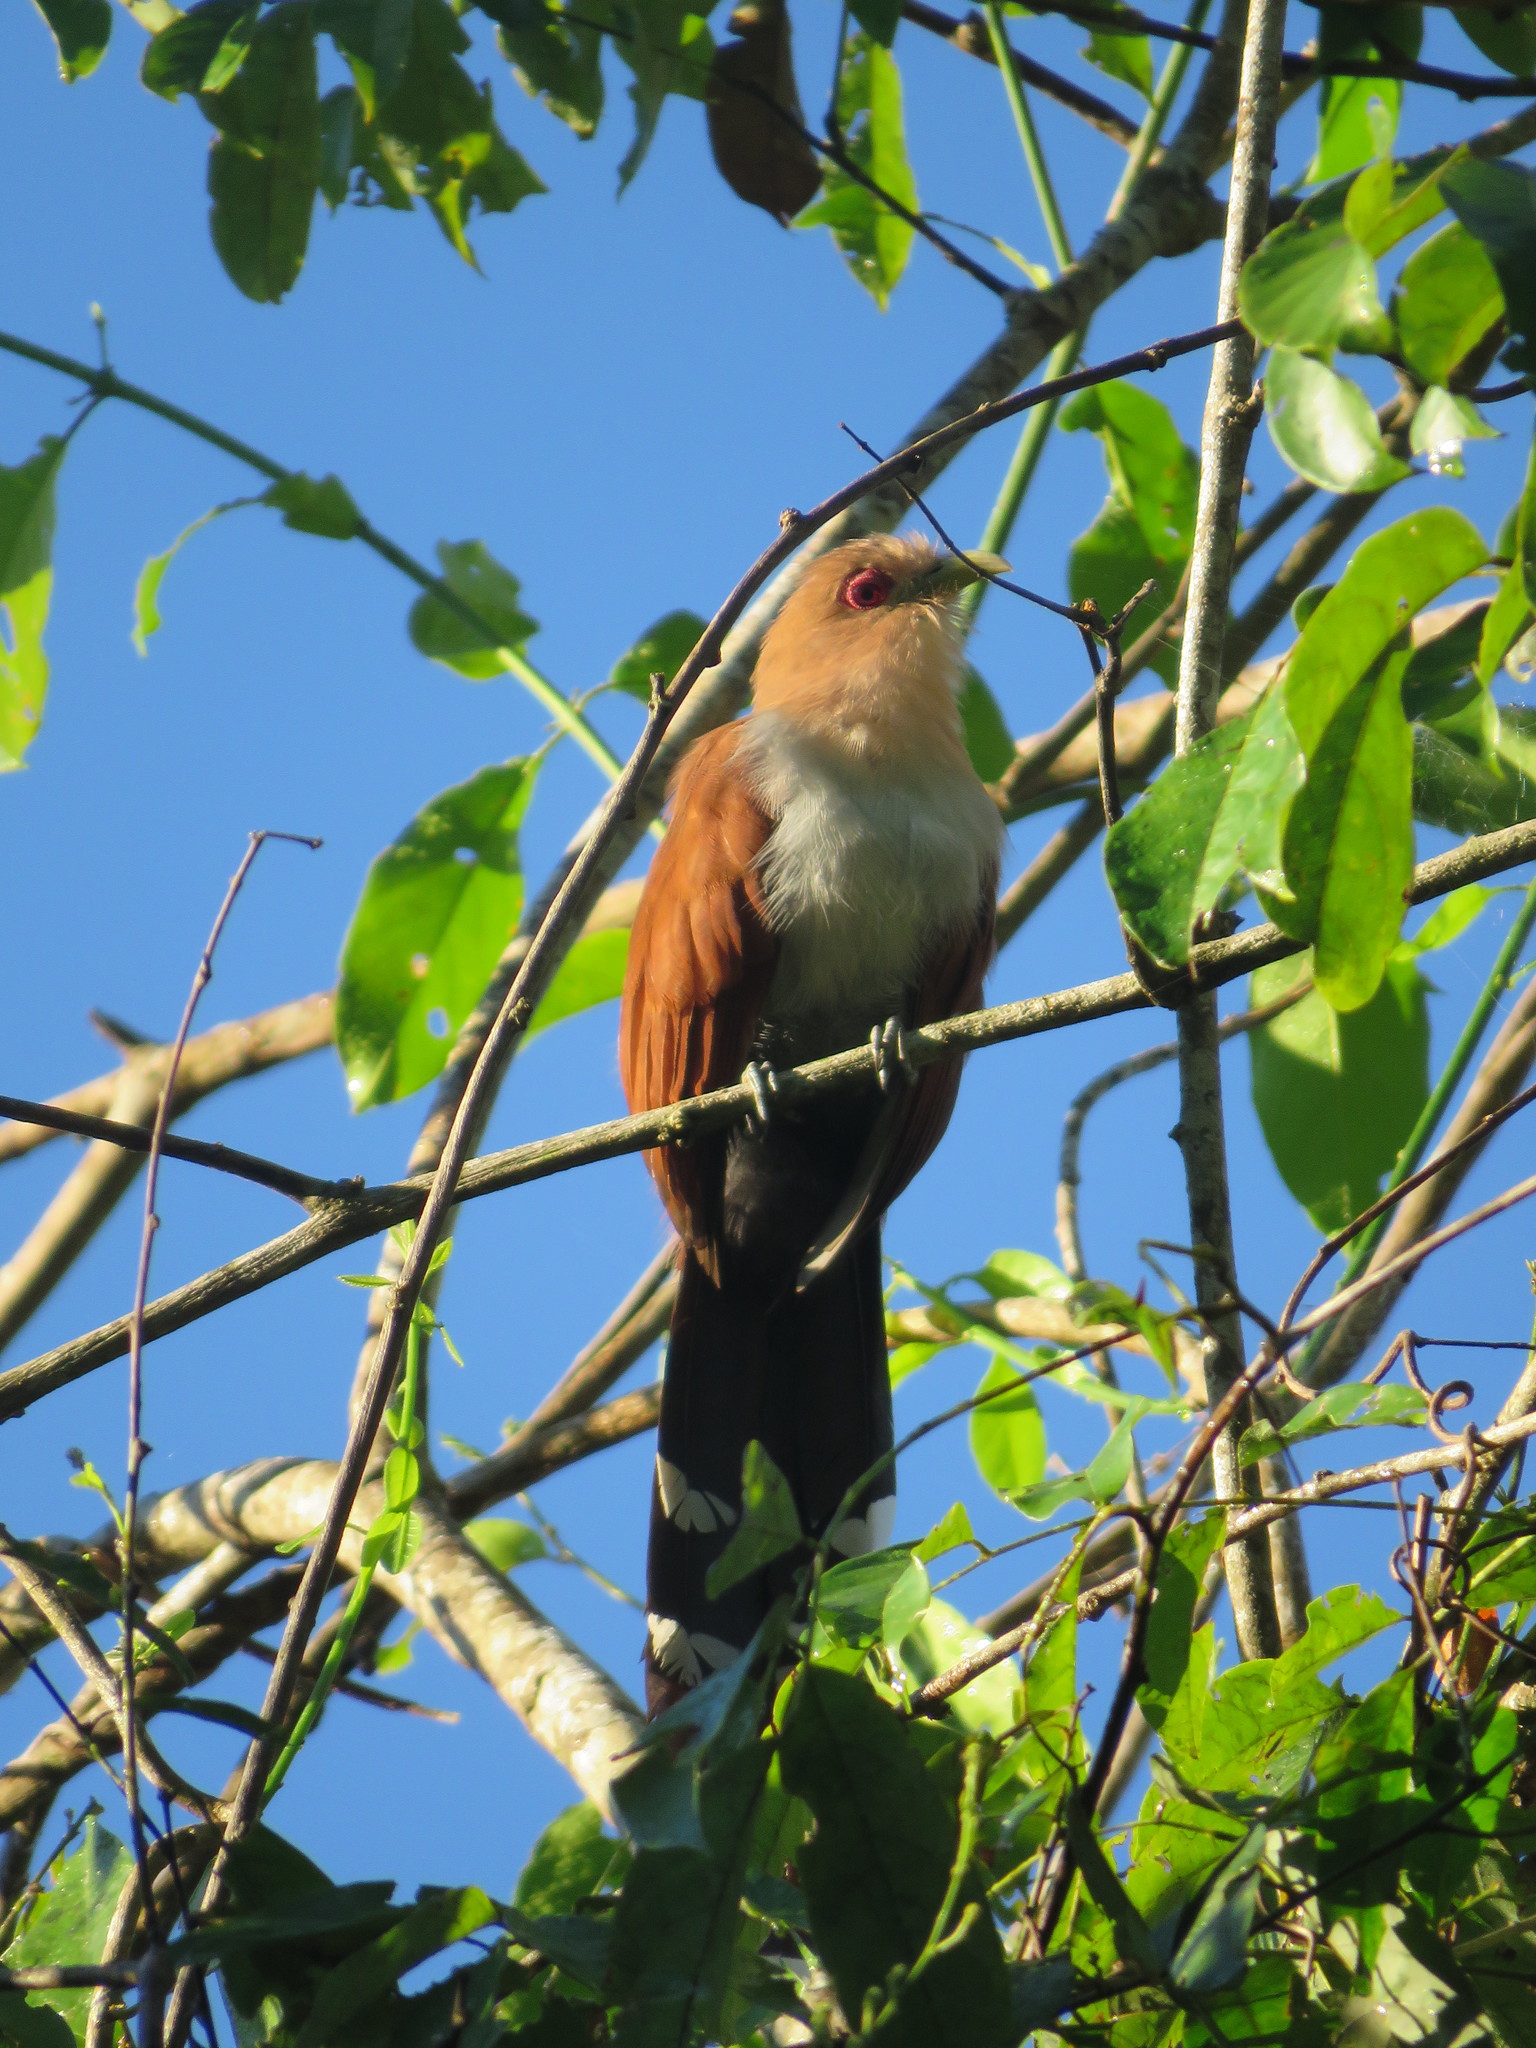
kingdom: Animalia
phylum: Chordata
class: Aves
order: Cuculiformes
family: Cuculidae
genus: Piaya
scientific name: Piaya cayana
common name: Squirrel cuckoo
